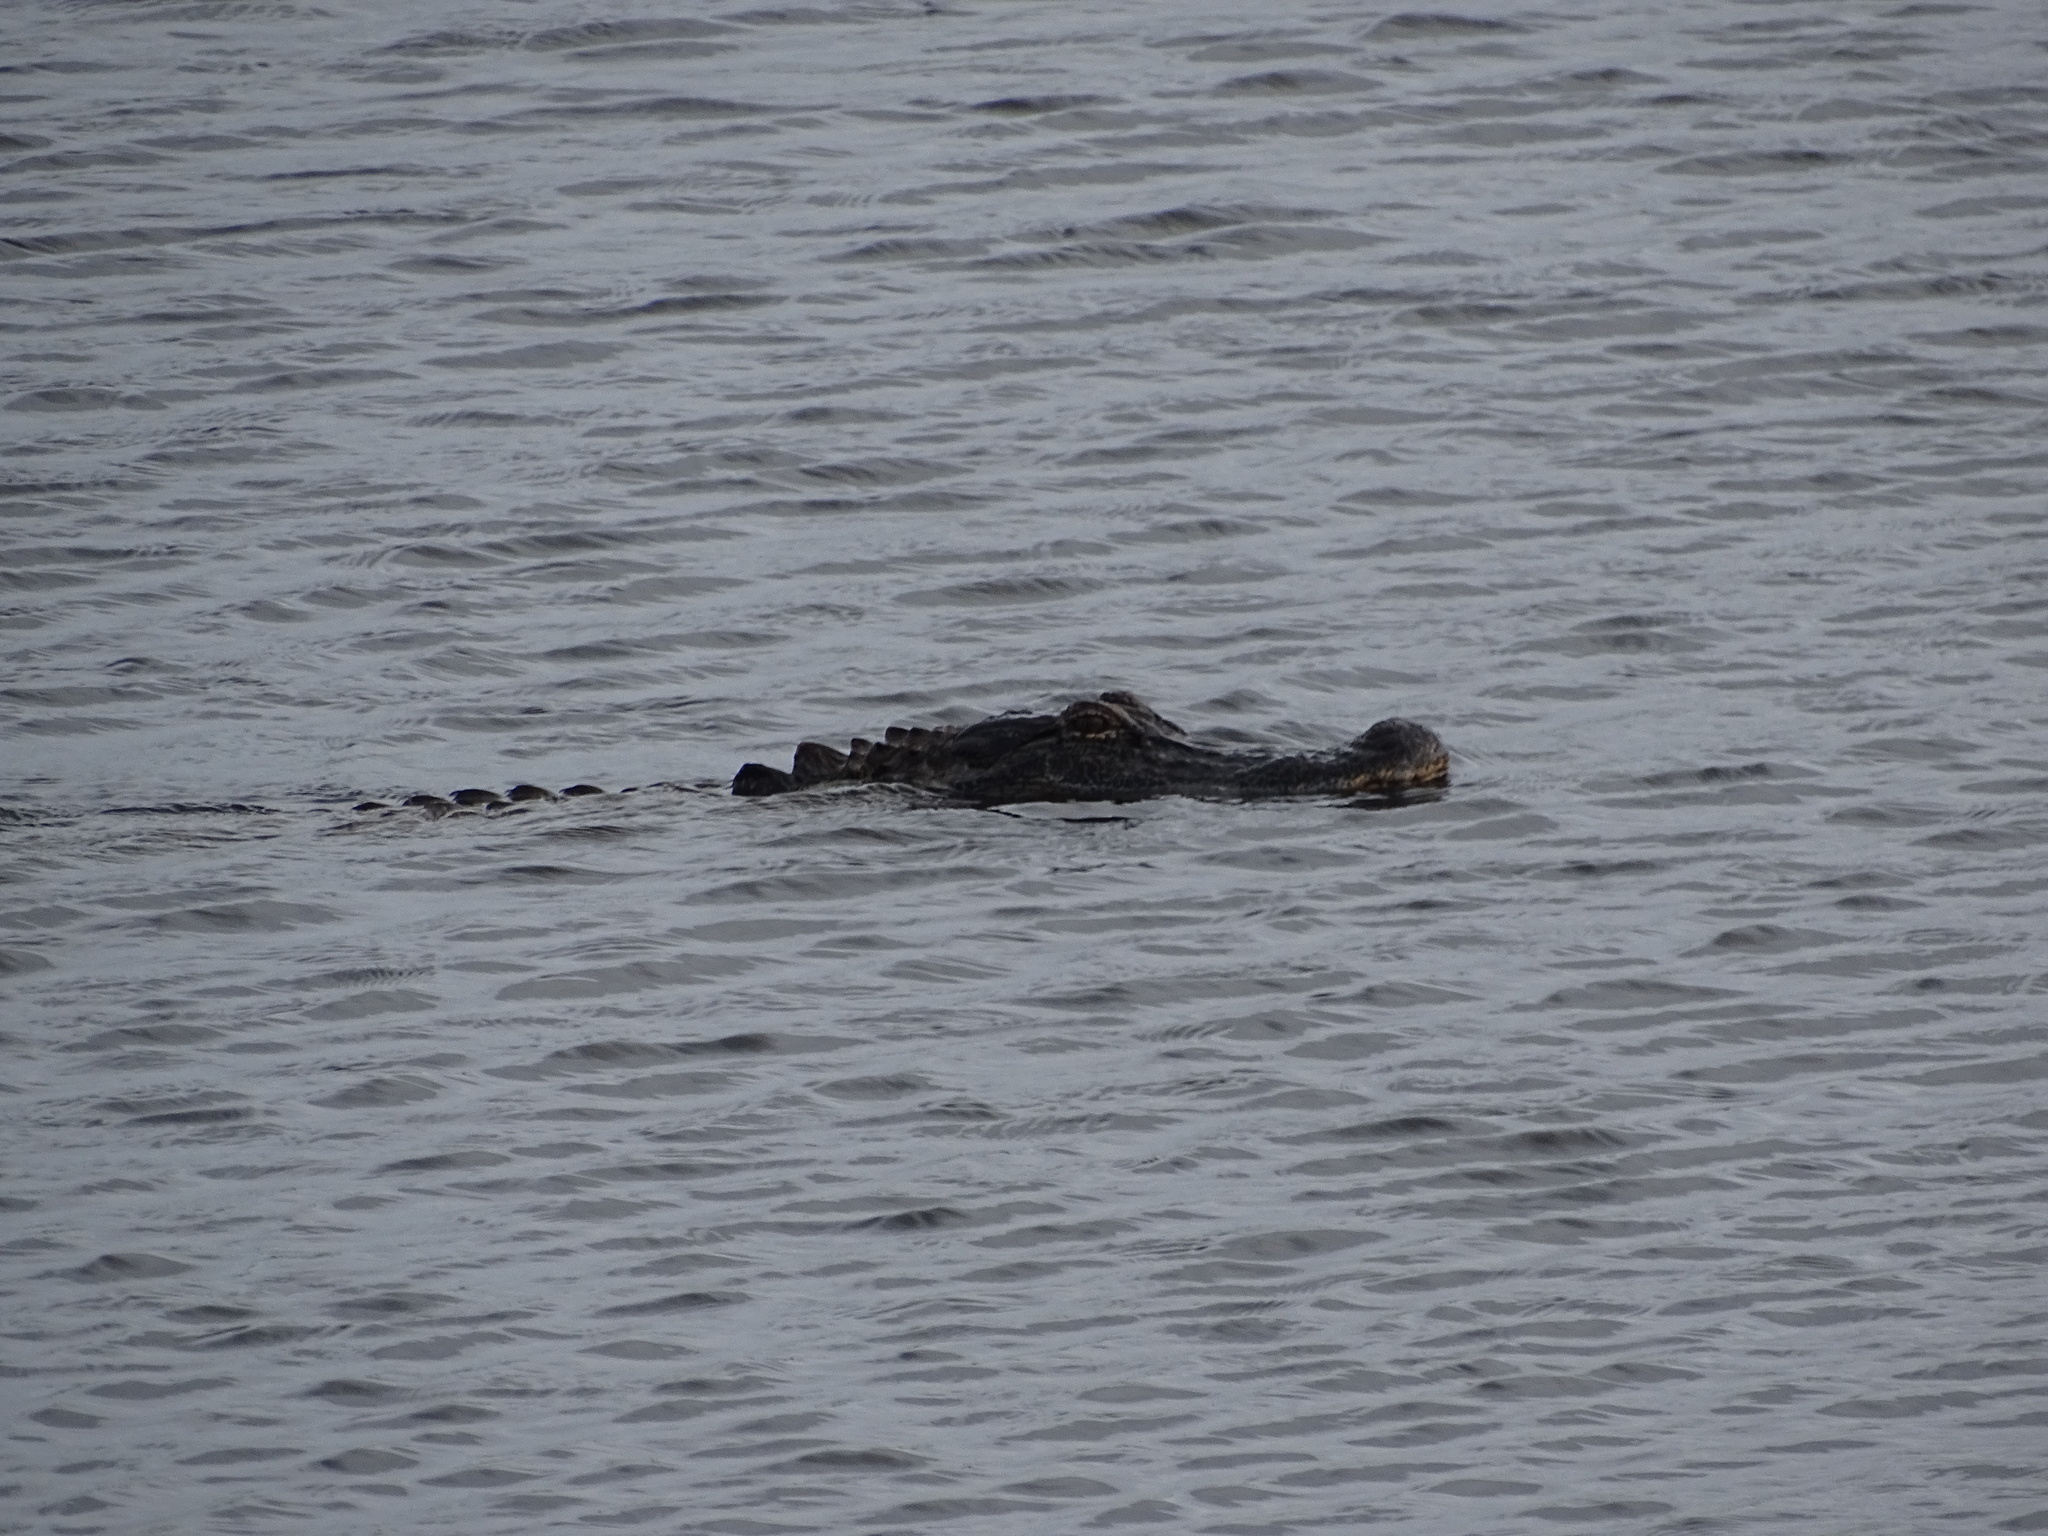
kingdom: Animalia
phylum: Chordata
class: Crocodylia
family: Alligatoridae
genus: Alligator
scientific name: Alligator mississippiensis
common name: American alligator
